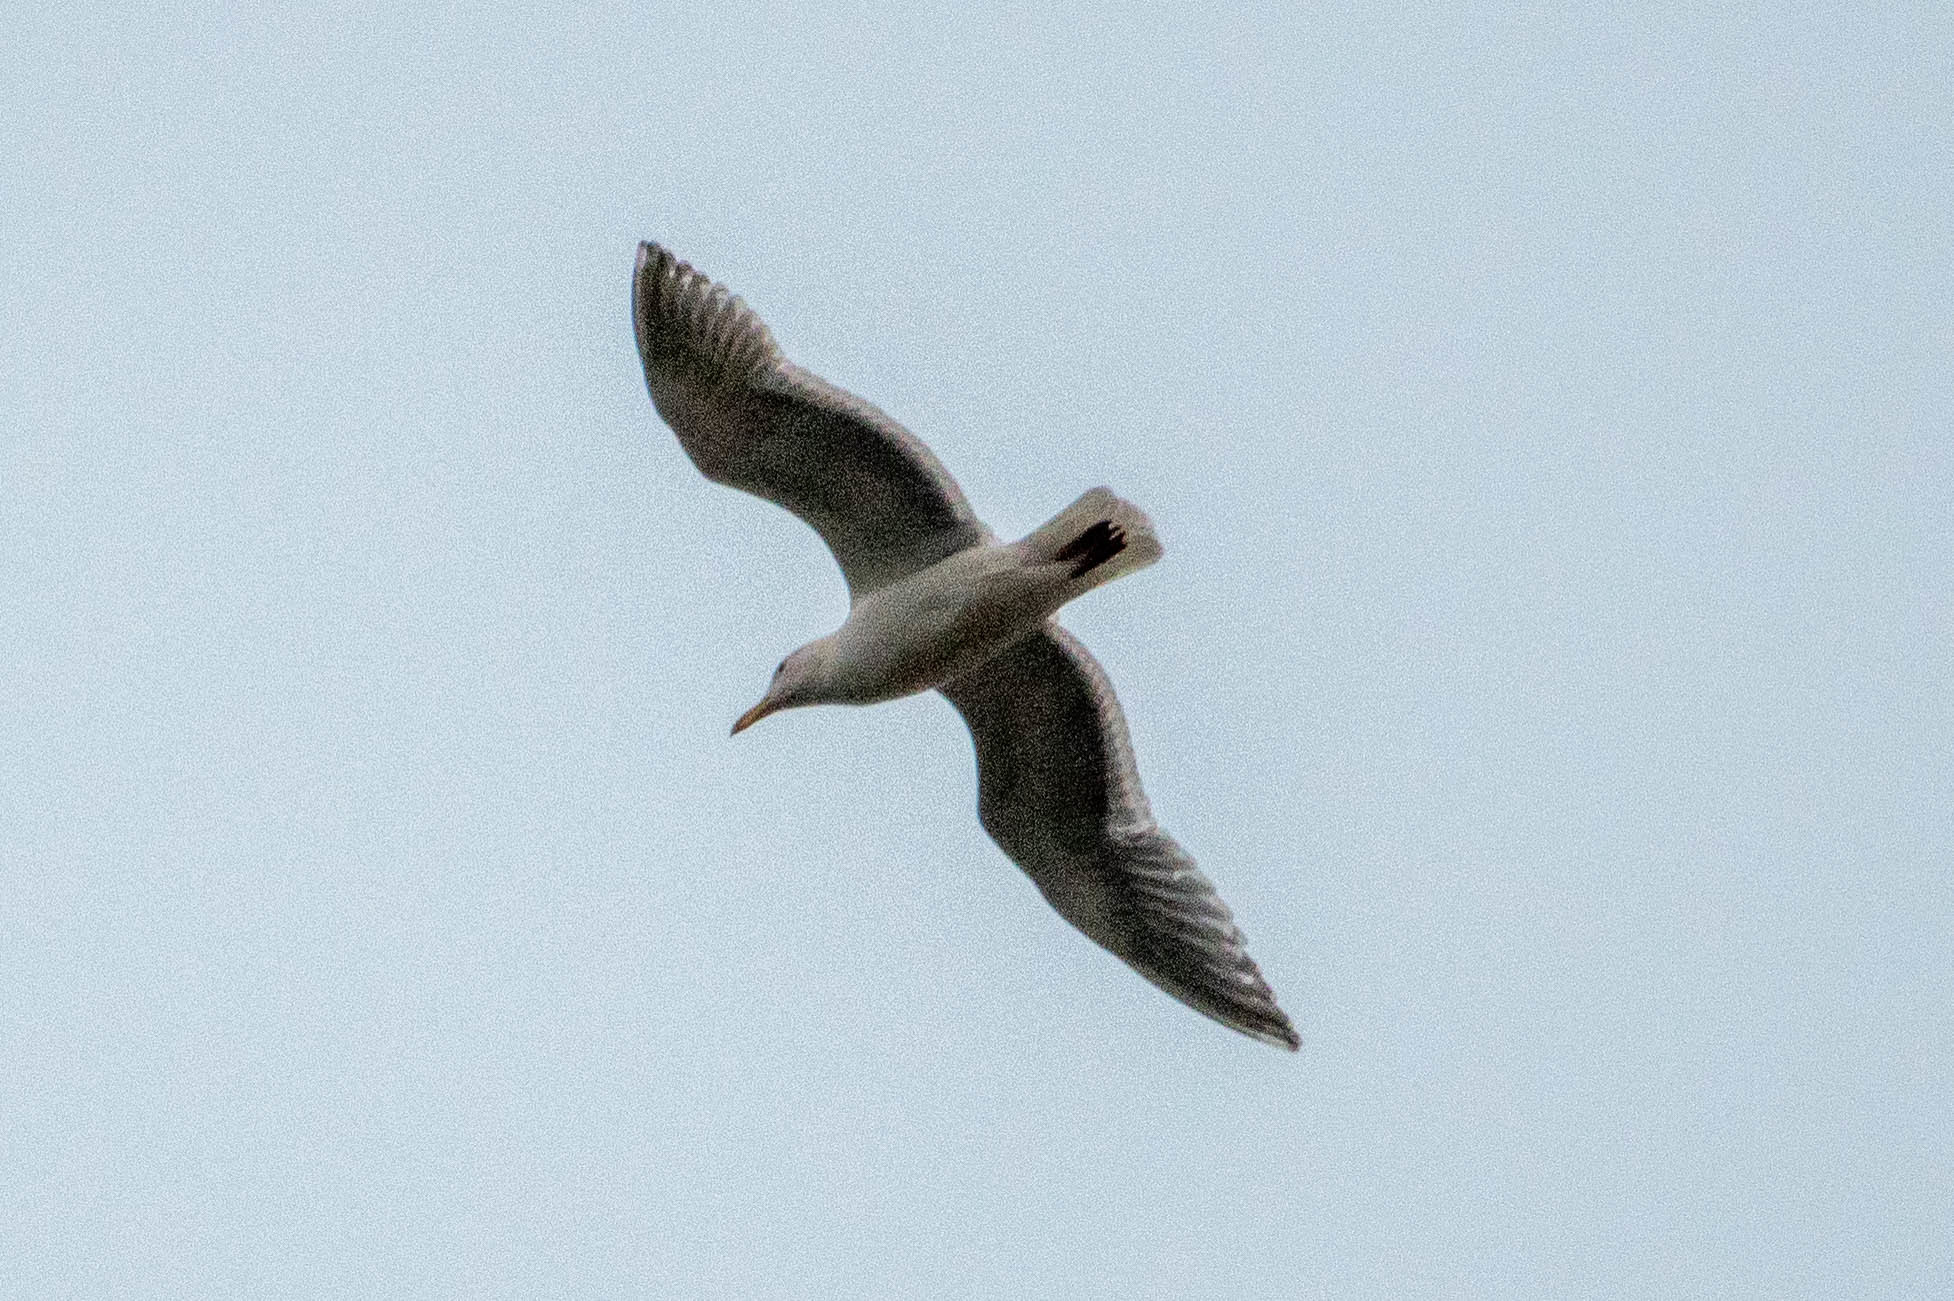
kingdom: Animalia
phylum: Chordata
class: Aves
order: Charadriiformes
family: Laridae
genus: Larus
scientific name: Larus
